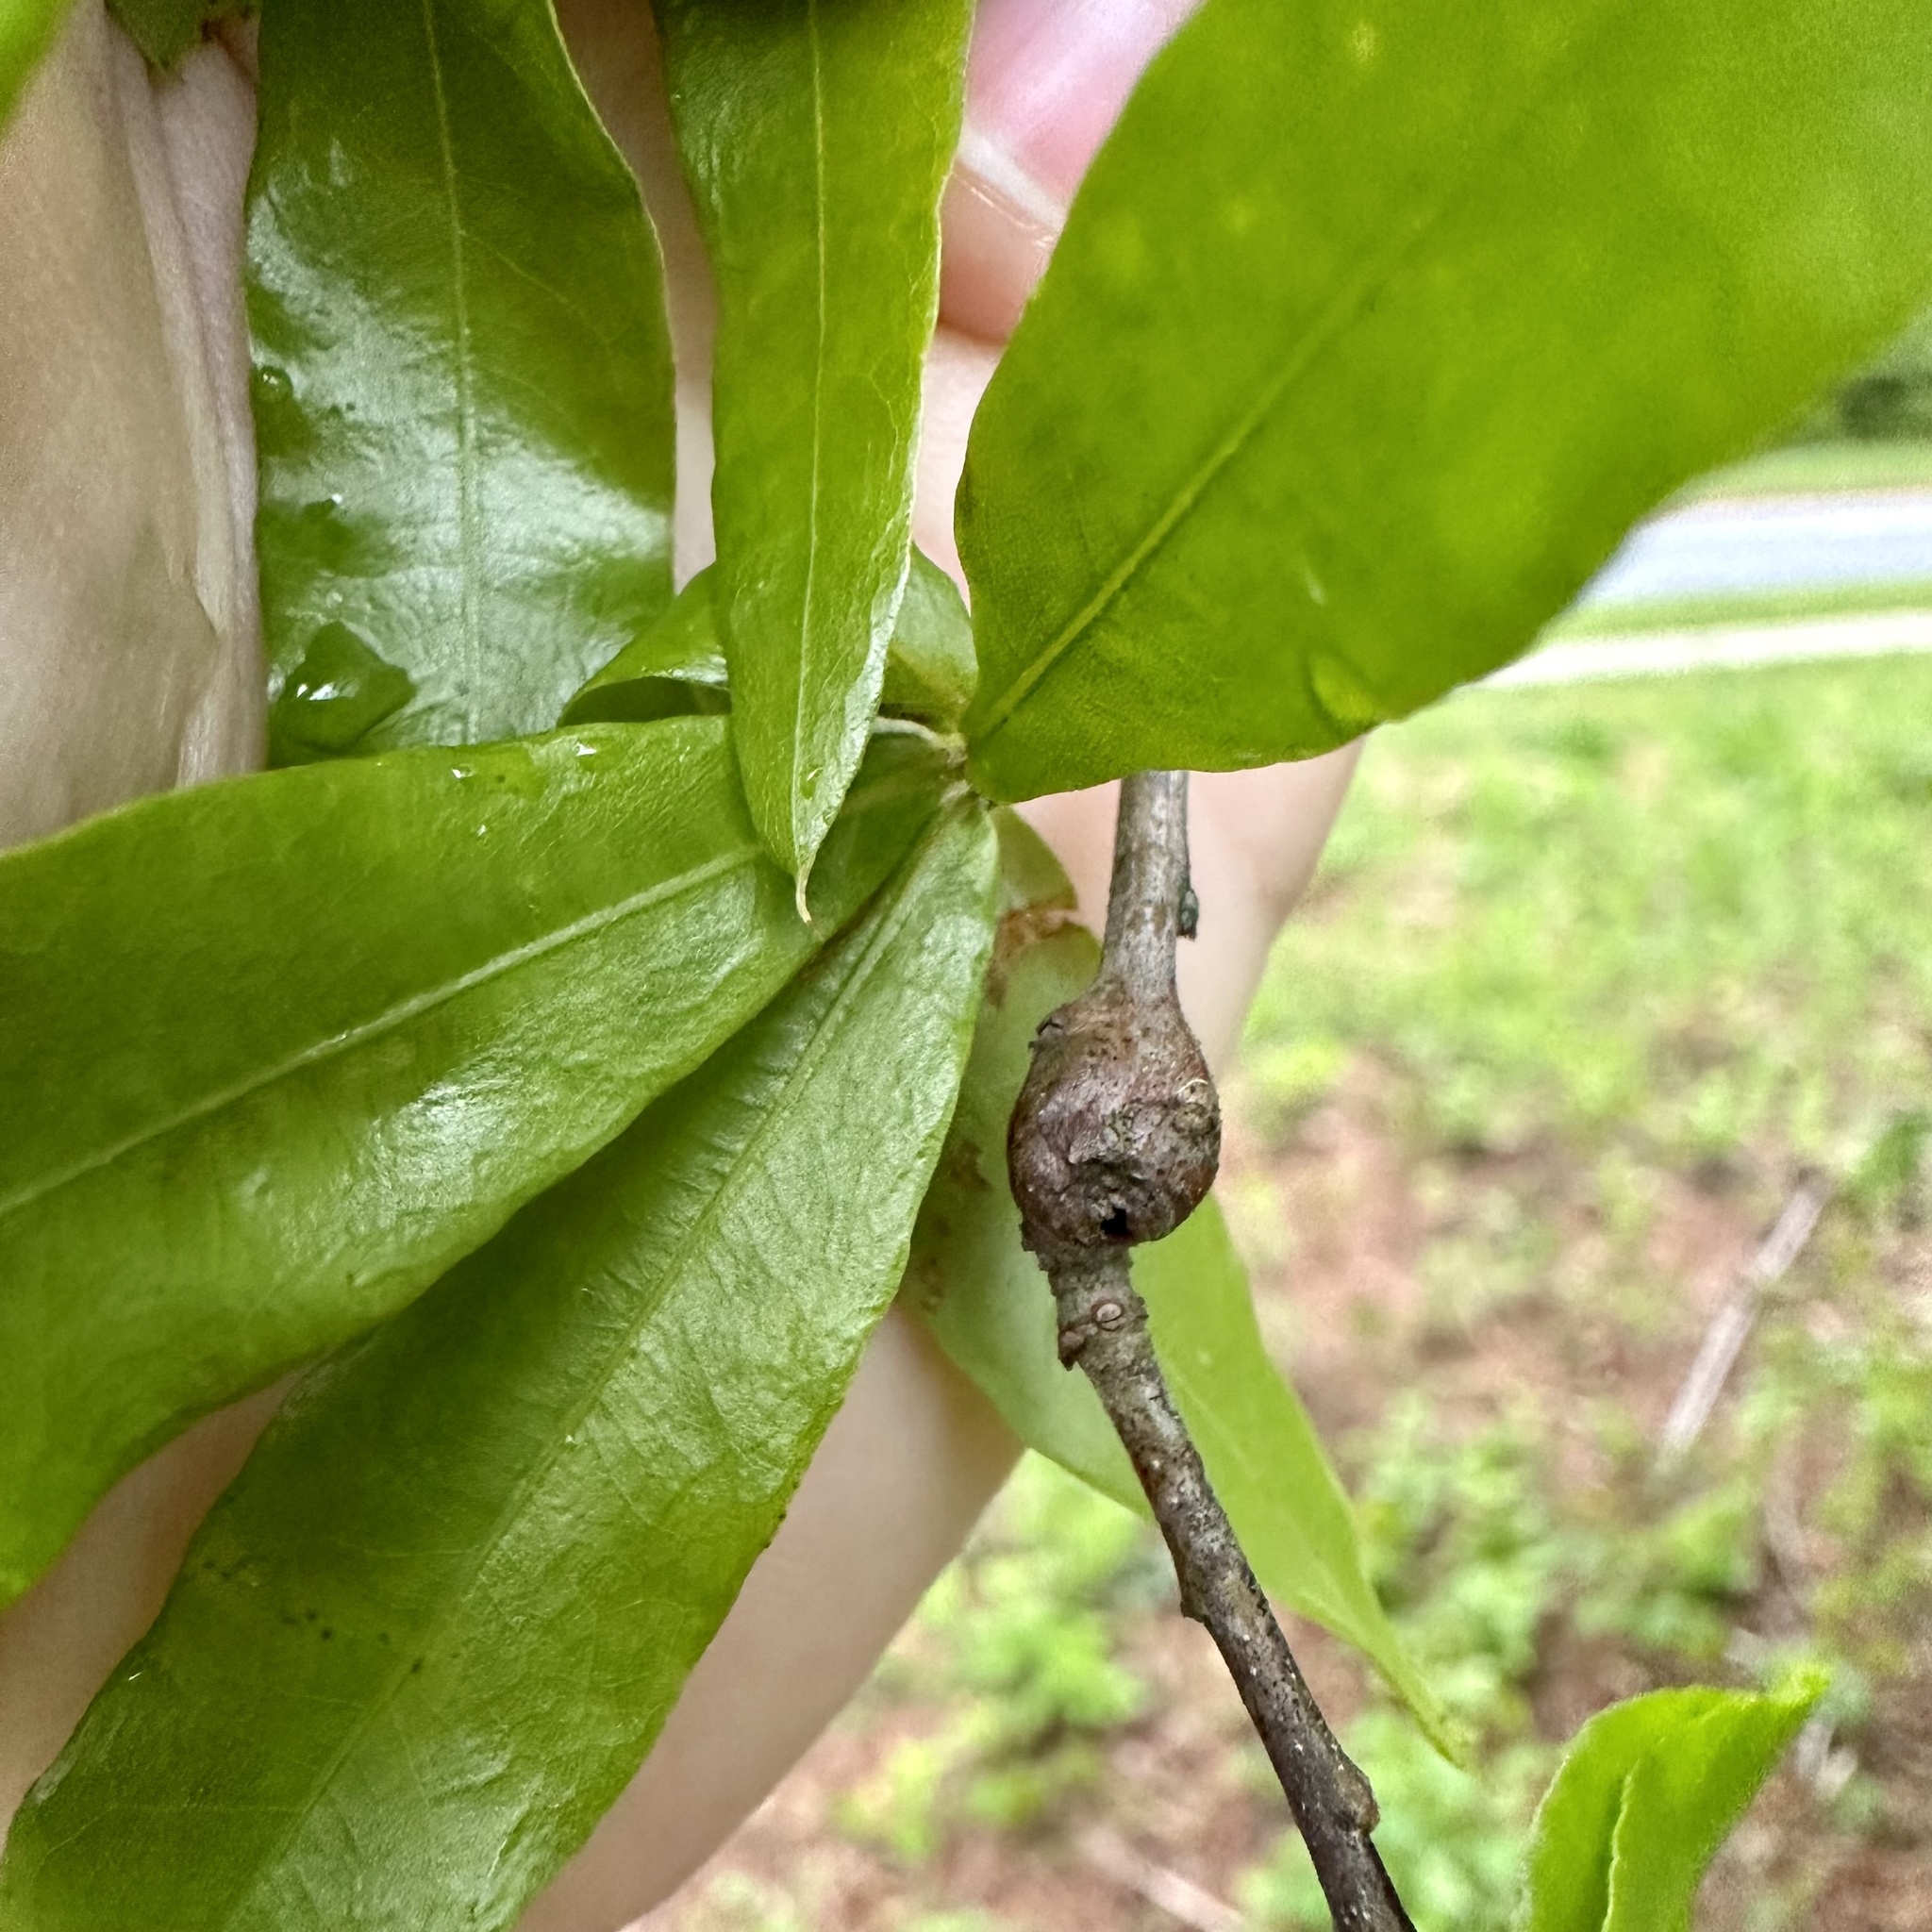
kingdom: Animalia
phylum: Arthropoda
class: Insecta
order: Hymenoptera
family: Cynipidae
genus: Zapatella
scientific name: Zapatella quercusphellos
